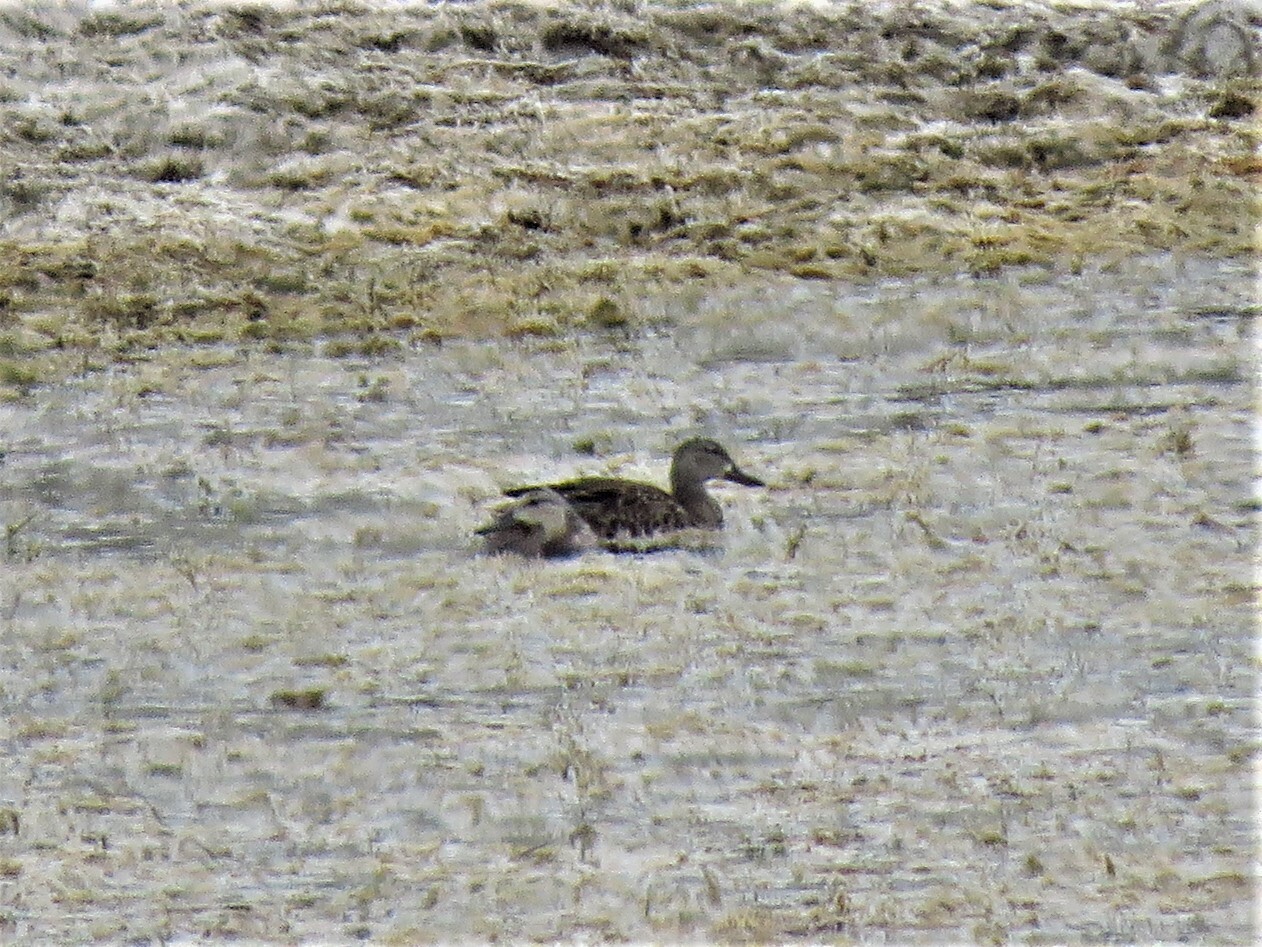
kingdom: Animalia
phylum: Chordata
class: Aves
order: Anseriformes
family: Anatidae
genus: Spatula
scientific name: Spatula discors
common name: Blue-winged teal
